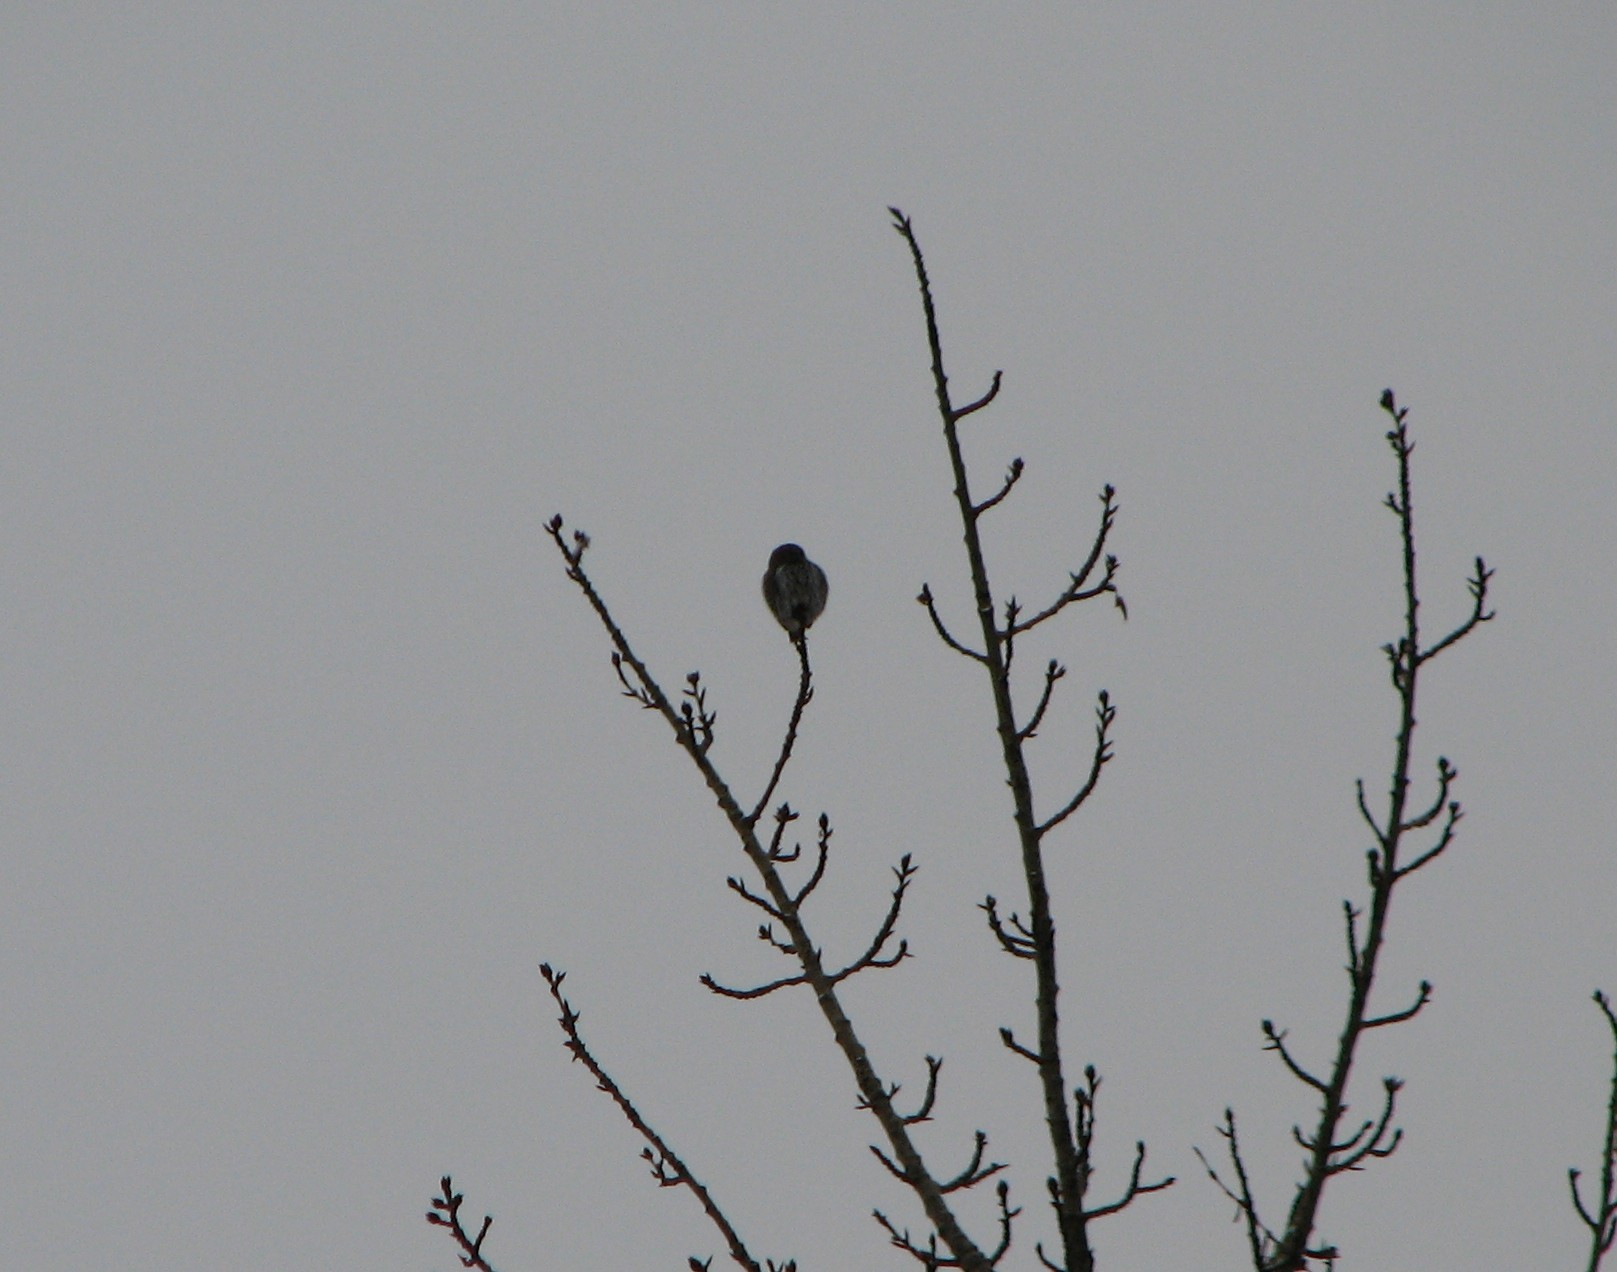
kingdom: Animalia
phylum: Chordata
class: Aves
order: Strigiformes
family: Strigidae
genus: Glaucidium
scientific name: Glaucidium gnoma
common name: Northern pygmy-owl
